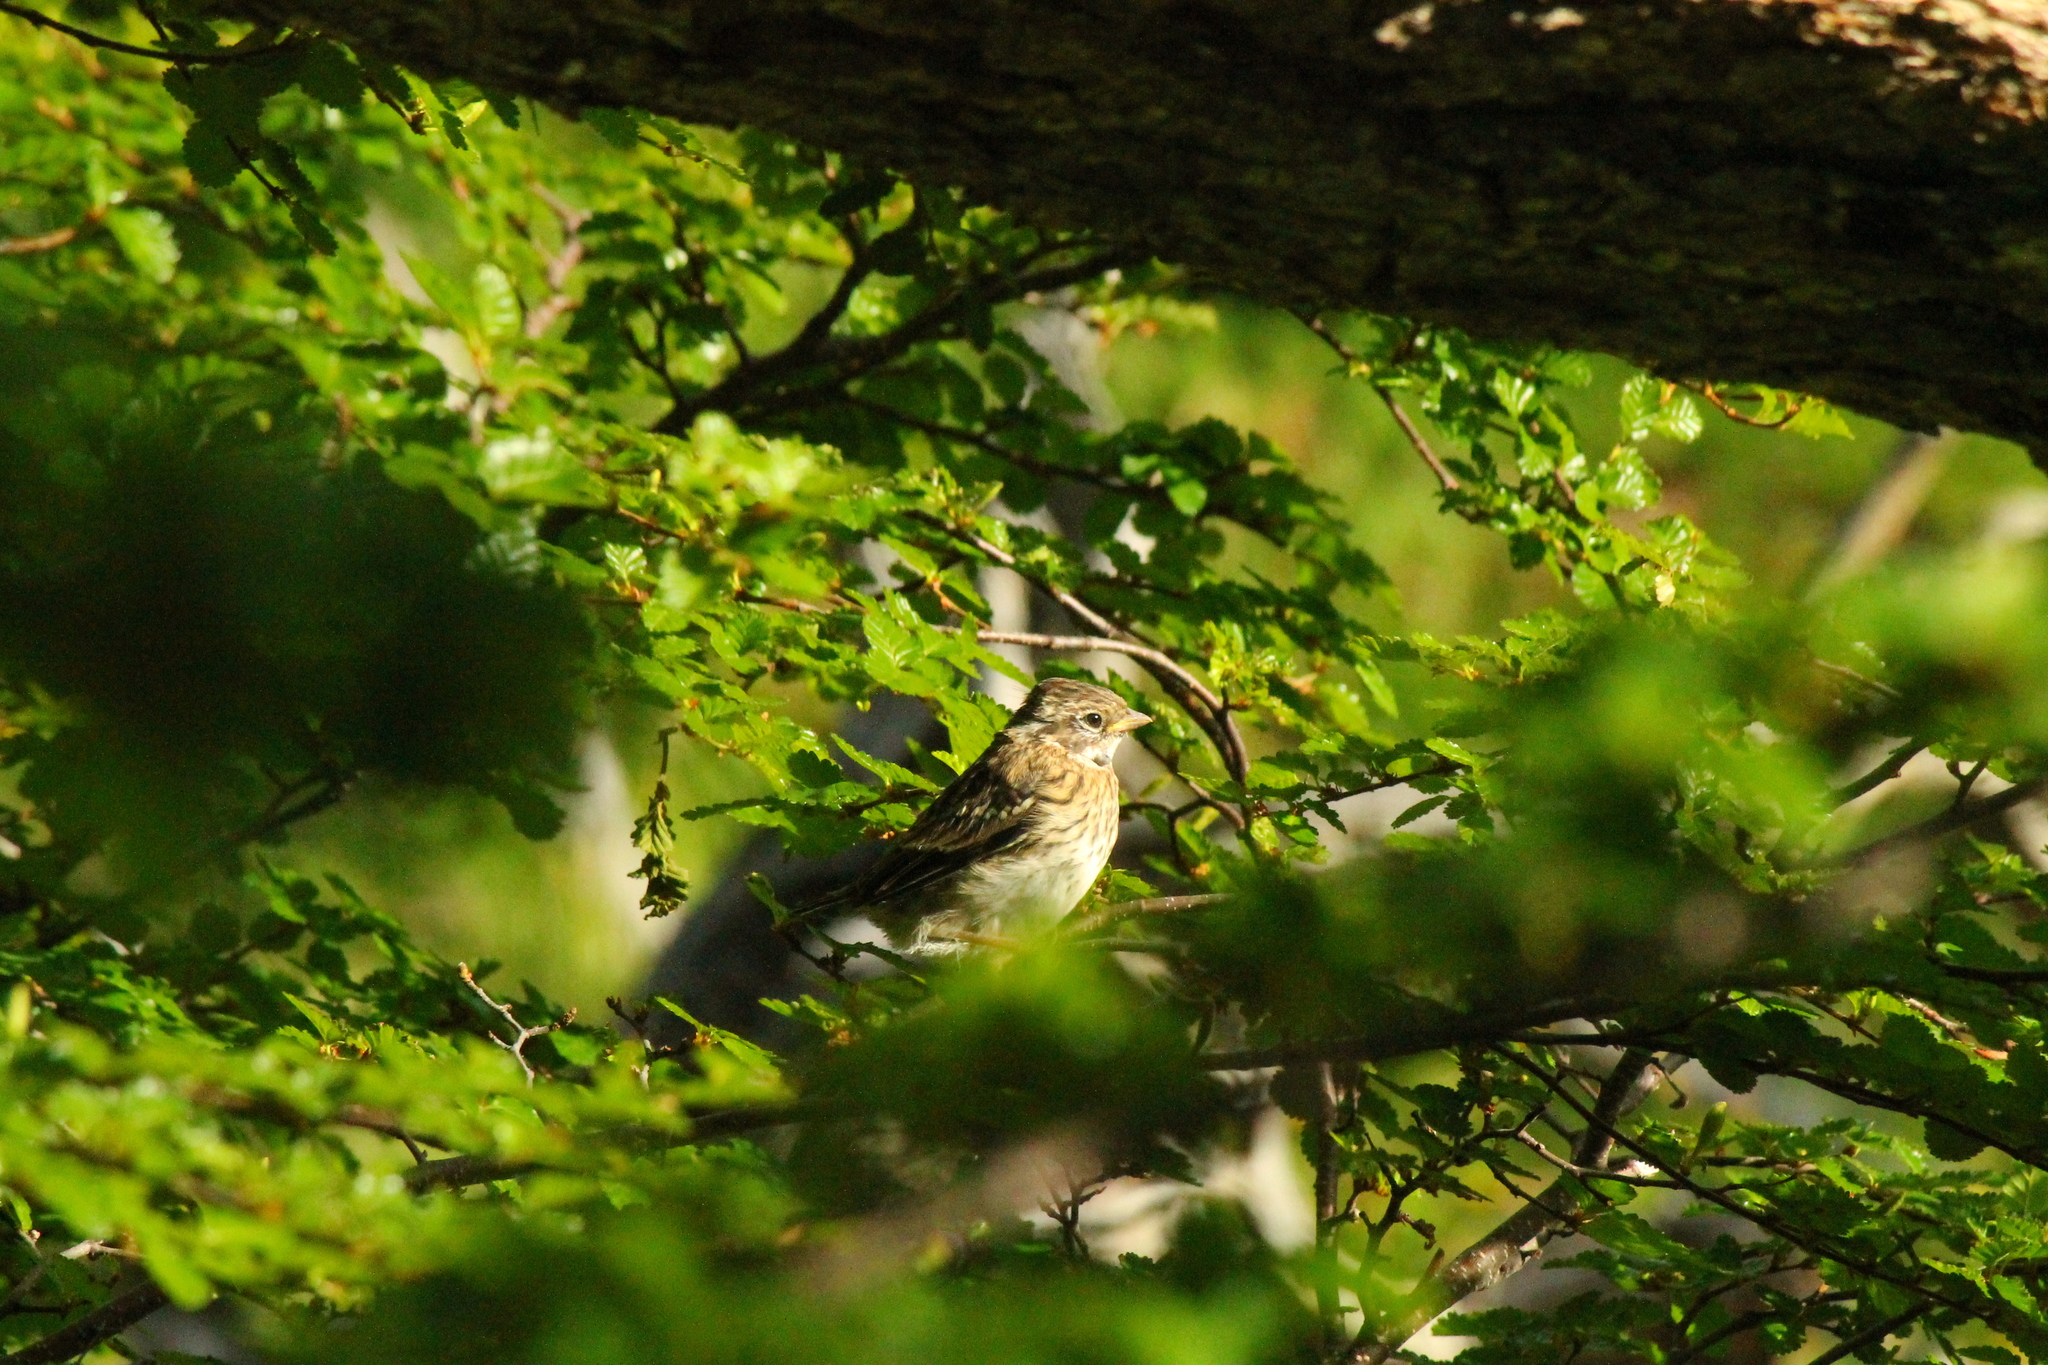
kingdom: Animalia
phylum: Chordata
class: Aves
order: Passeriformes
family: Passerellidae
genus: Zonotrichia
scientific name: Zonotrichia capensis
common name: Rufous-collared sparrow
